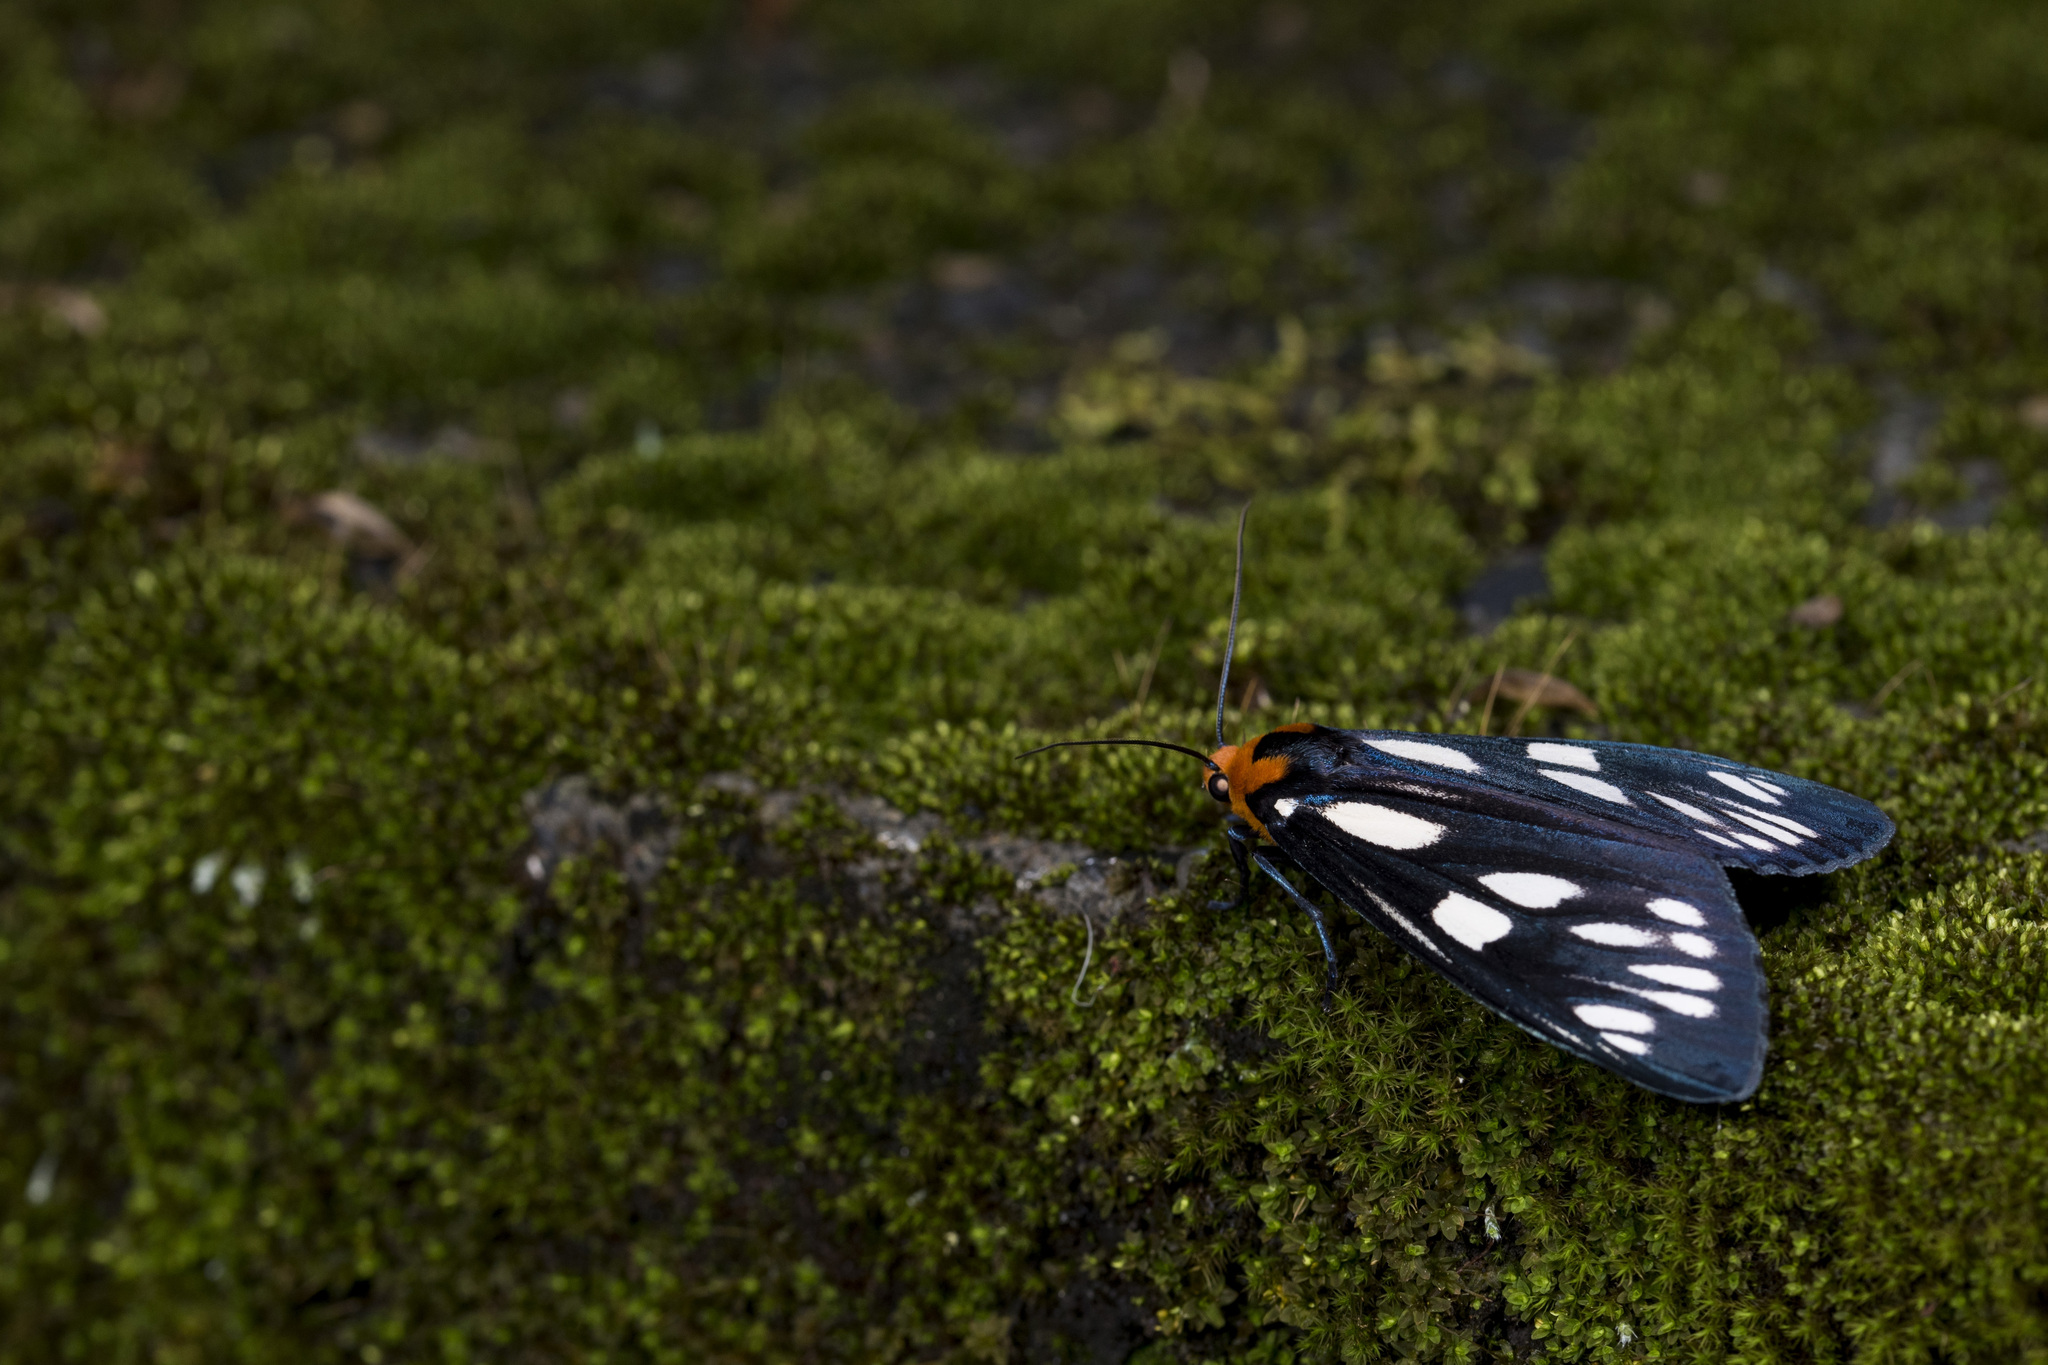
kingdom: Animalia
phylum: Arthropoda
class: Insecta
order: Lepidoptera
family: Erebidae
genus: Macrobrochis
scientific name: Macrobrochis gigas
